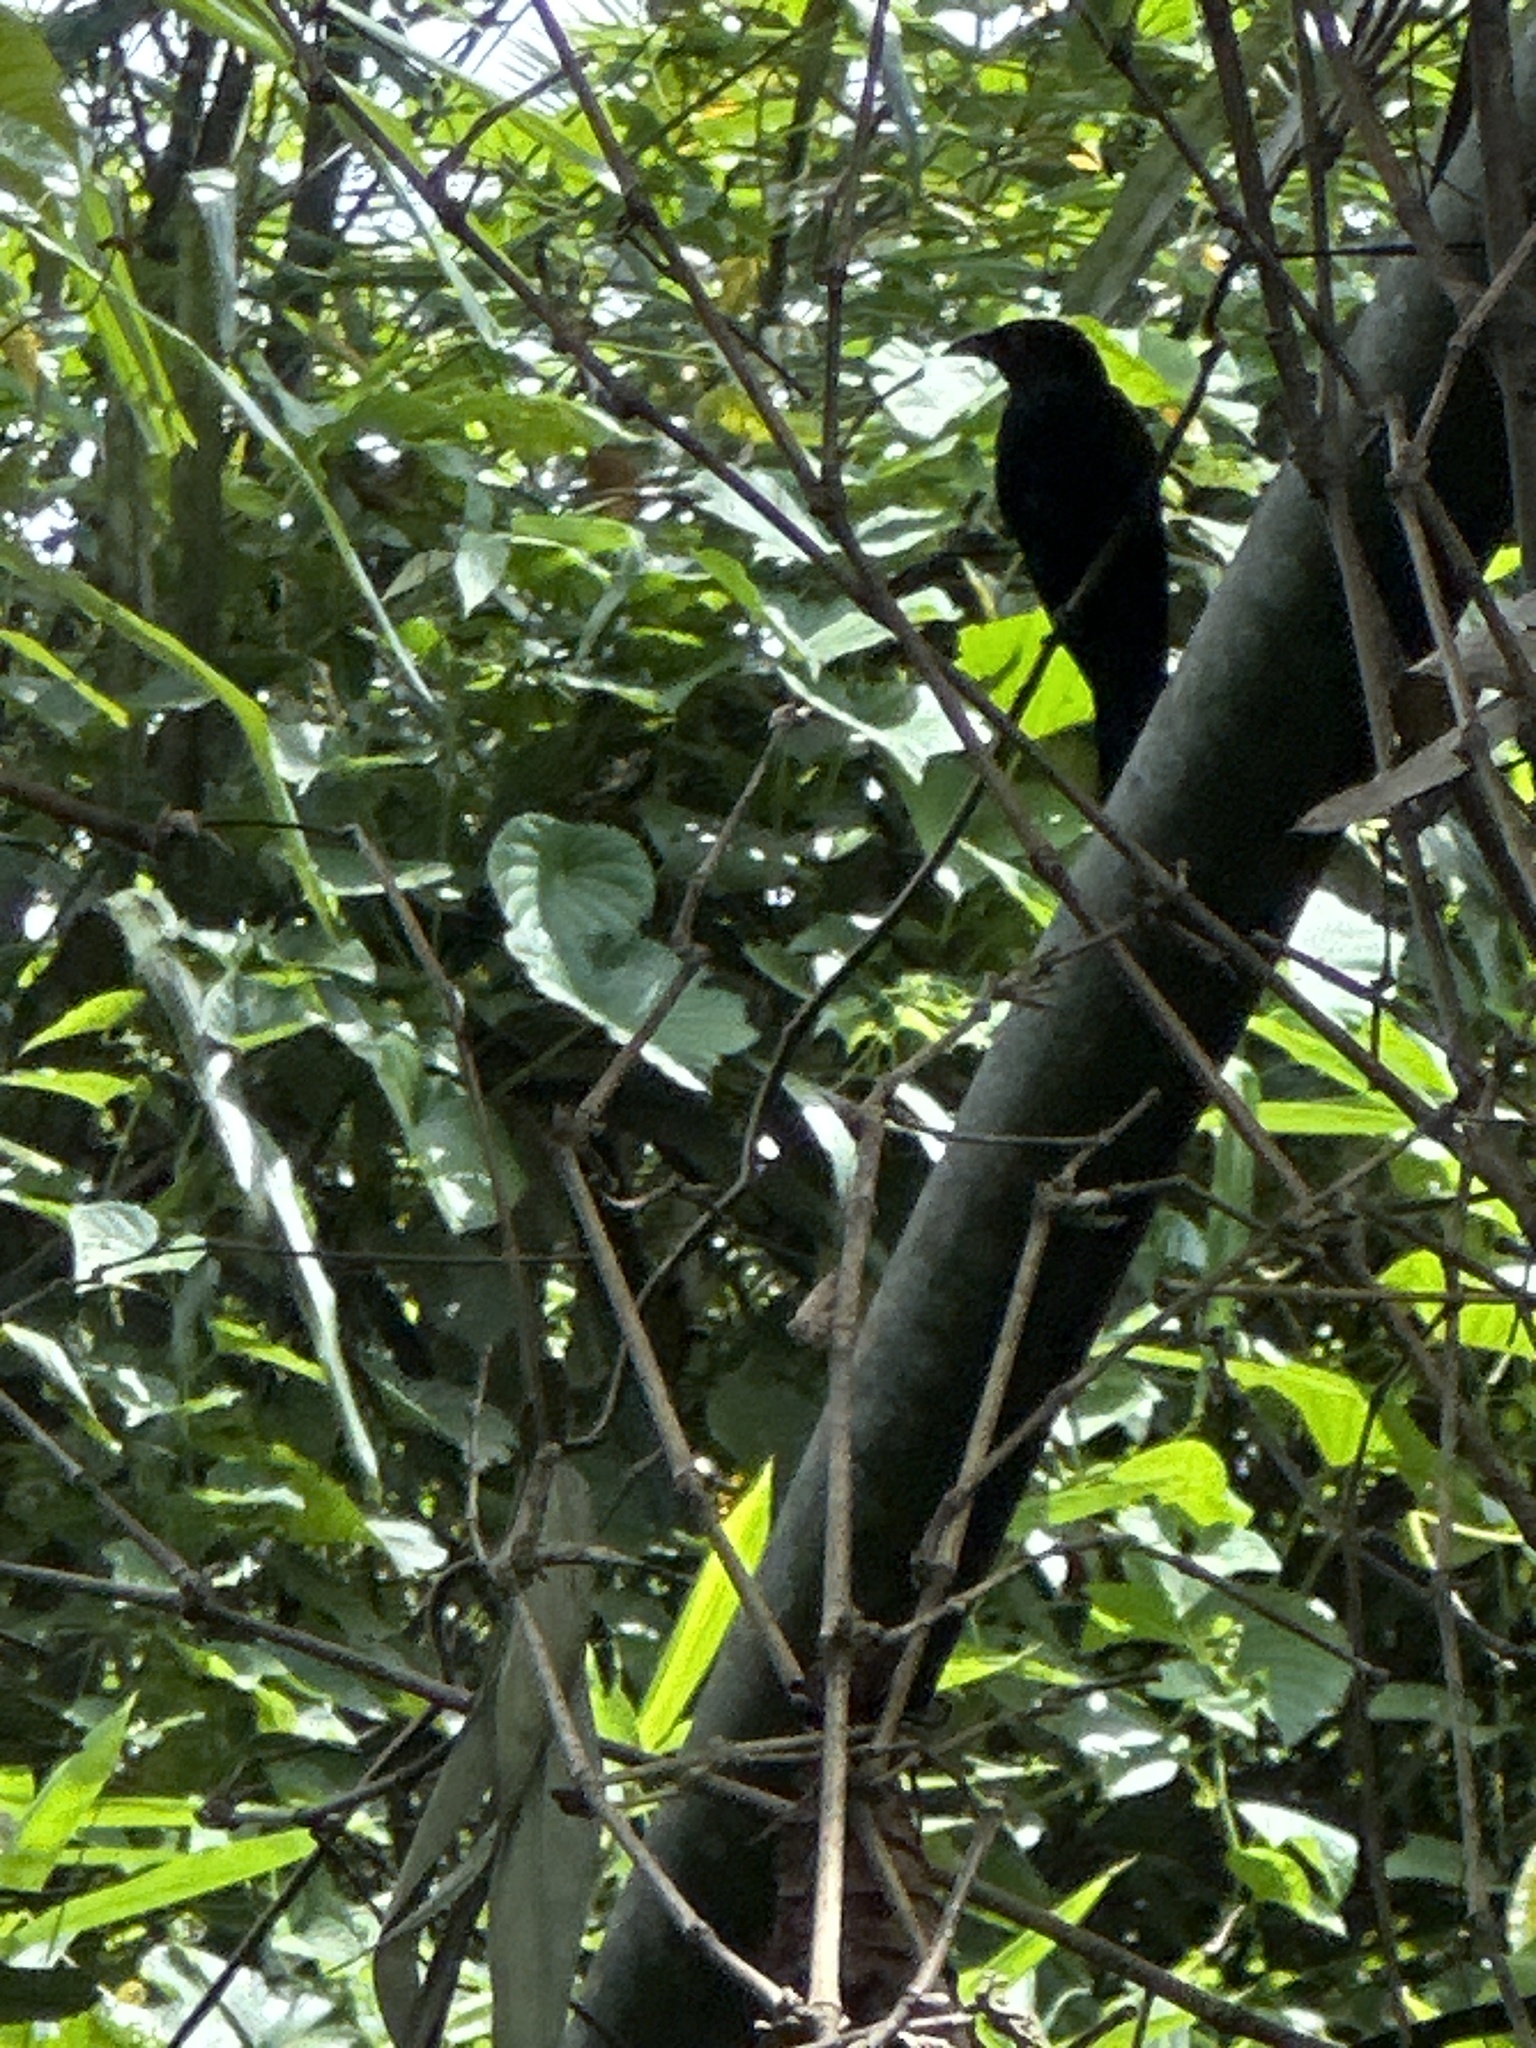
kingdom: Animalia
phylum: Chordata
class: Aves
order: Passeriformes
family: Dicruridae
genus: Dicrurus
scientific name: Dicrurus bracteatus
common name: Spangled drongo
